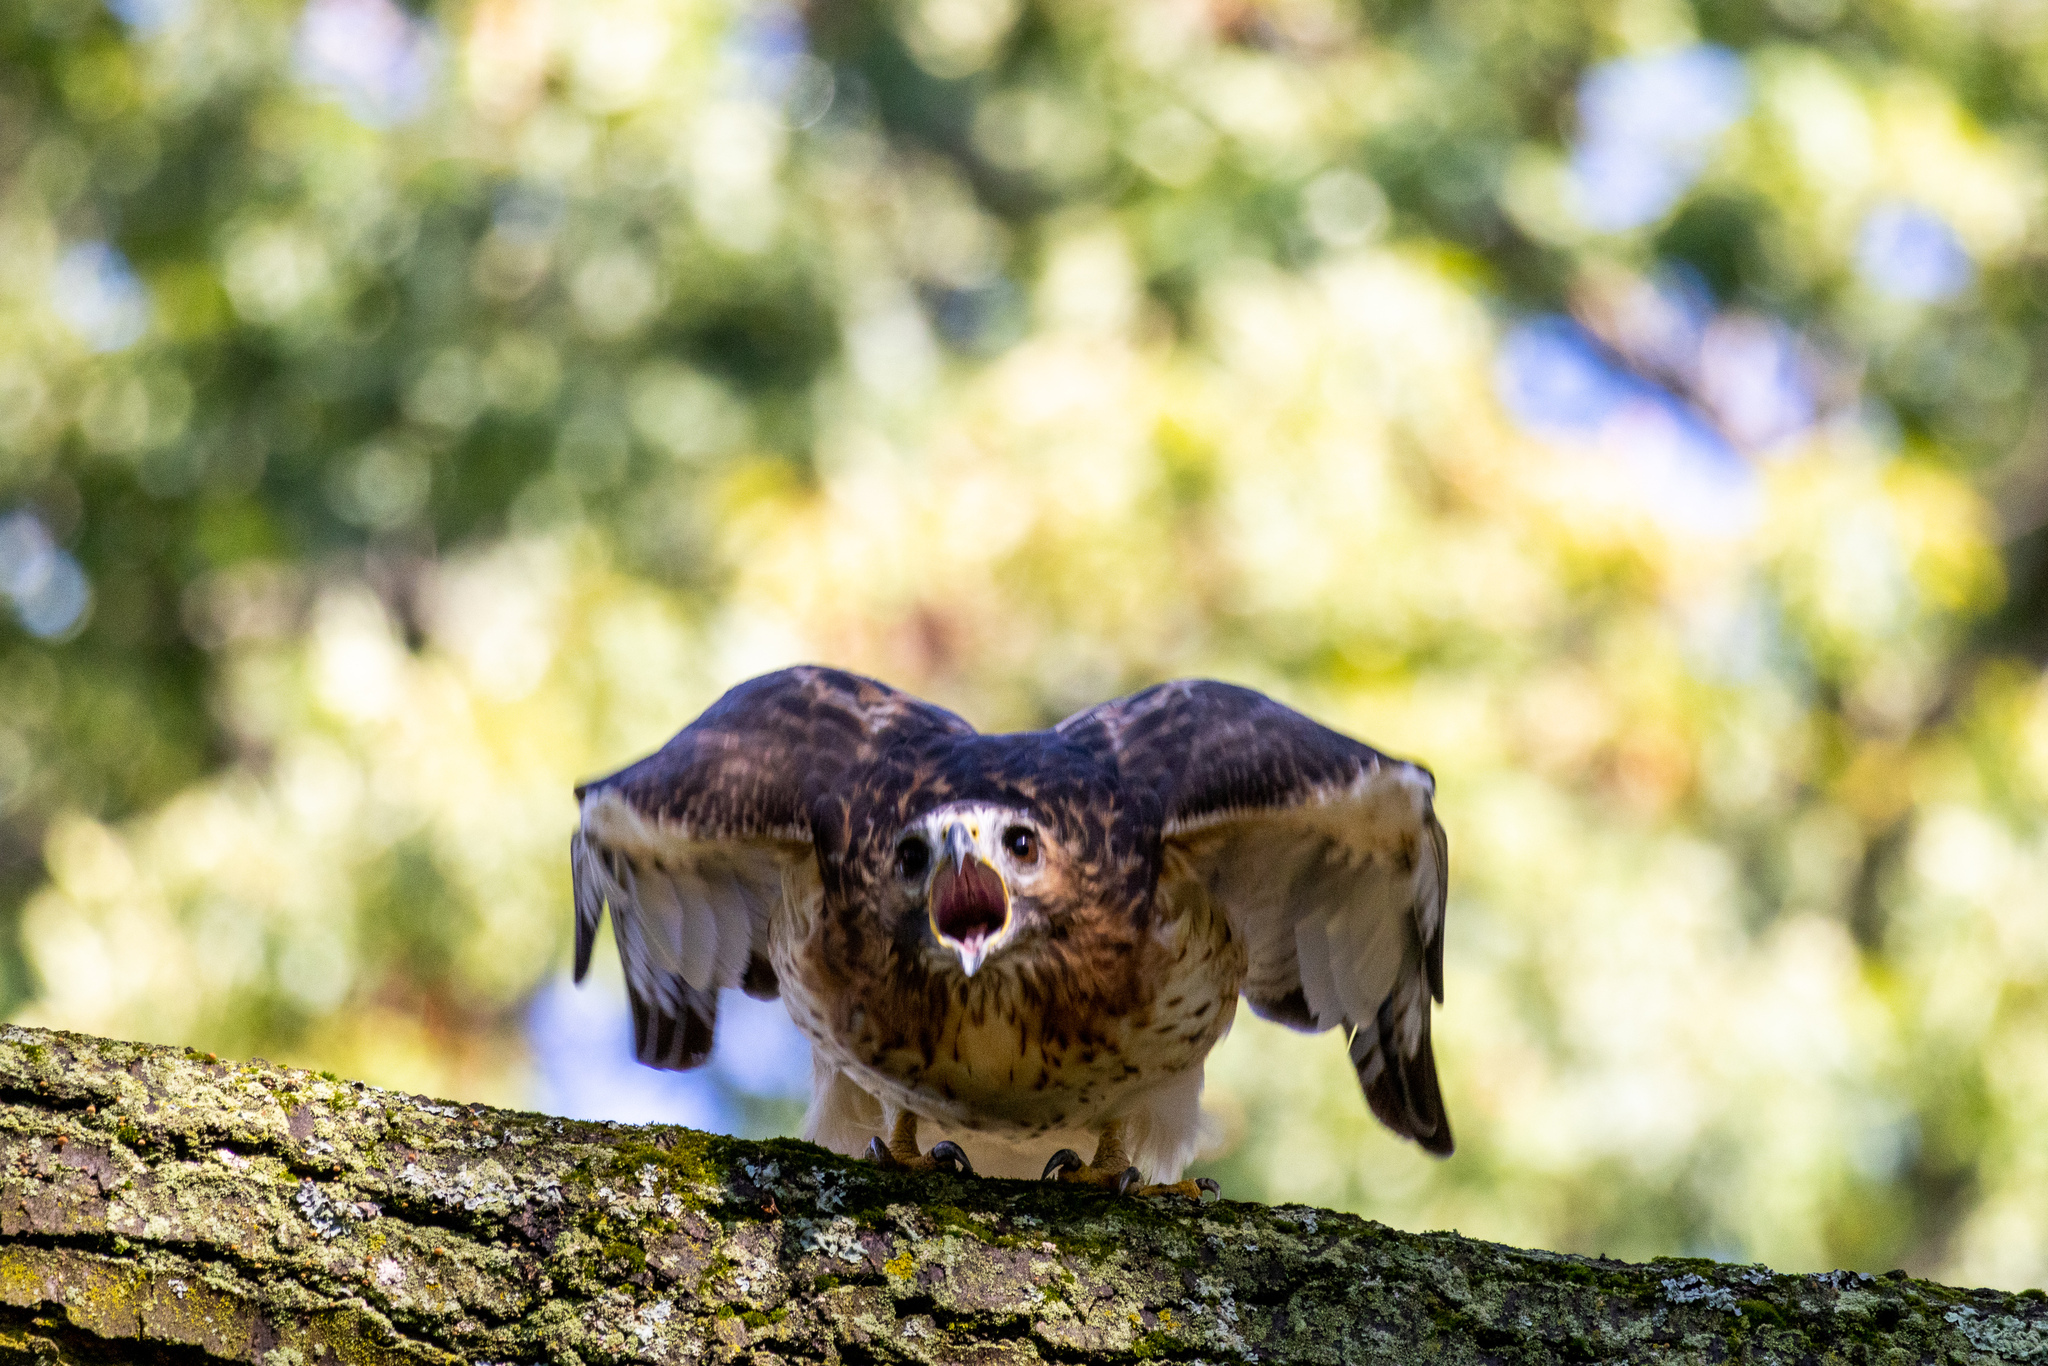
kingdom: Animalia
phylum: Chordata
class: Aves
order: Accipitriformes
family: Accipitridae
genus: Buteo
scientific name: Buteo jamaicensis
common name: Red-tailed hawk
